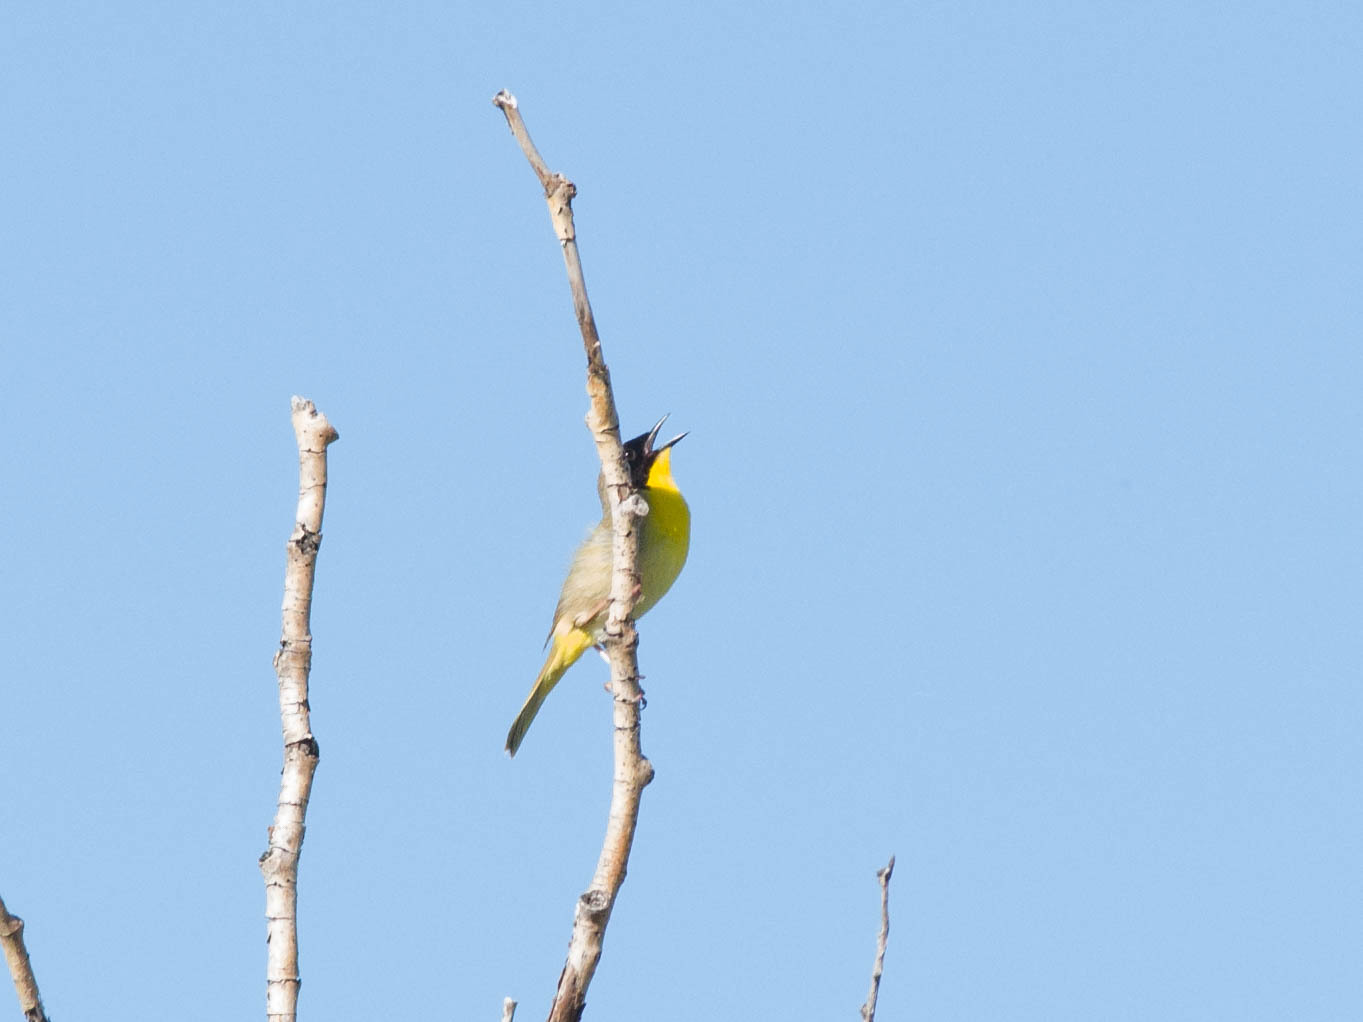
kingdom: Animalia
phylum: Chordata
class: Aves
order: Passeriformes
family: Parulidae
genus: Geothlypis
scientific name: Geothlypis trichas
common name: Common yellowthroat
